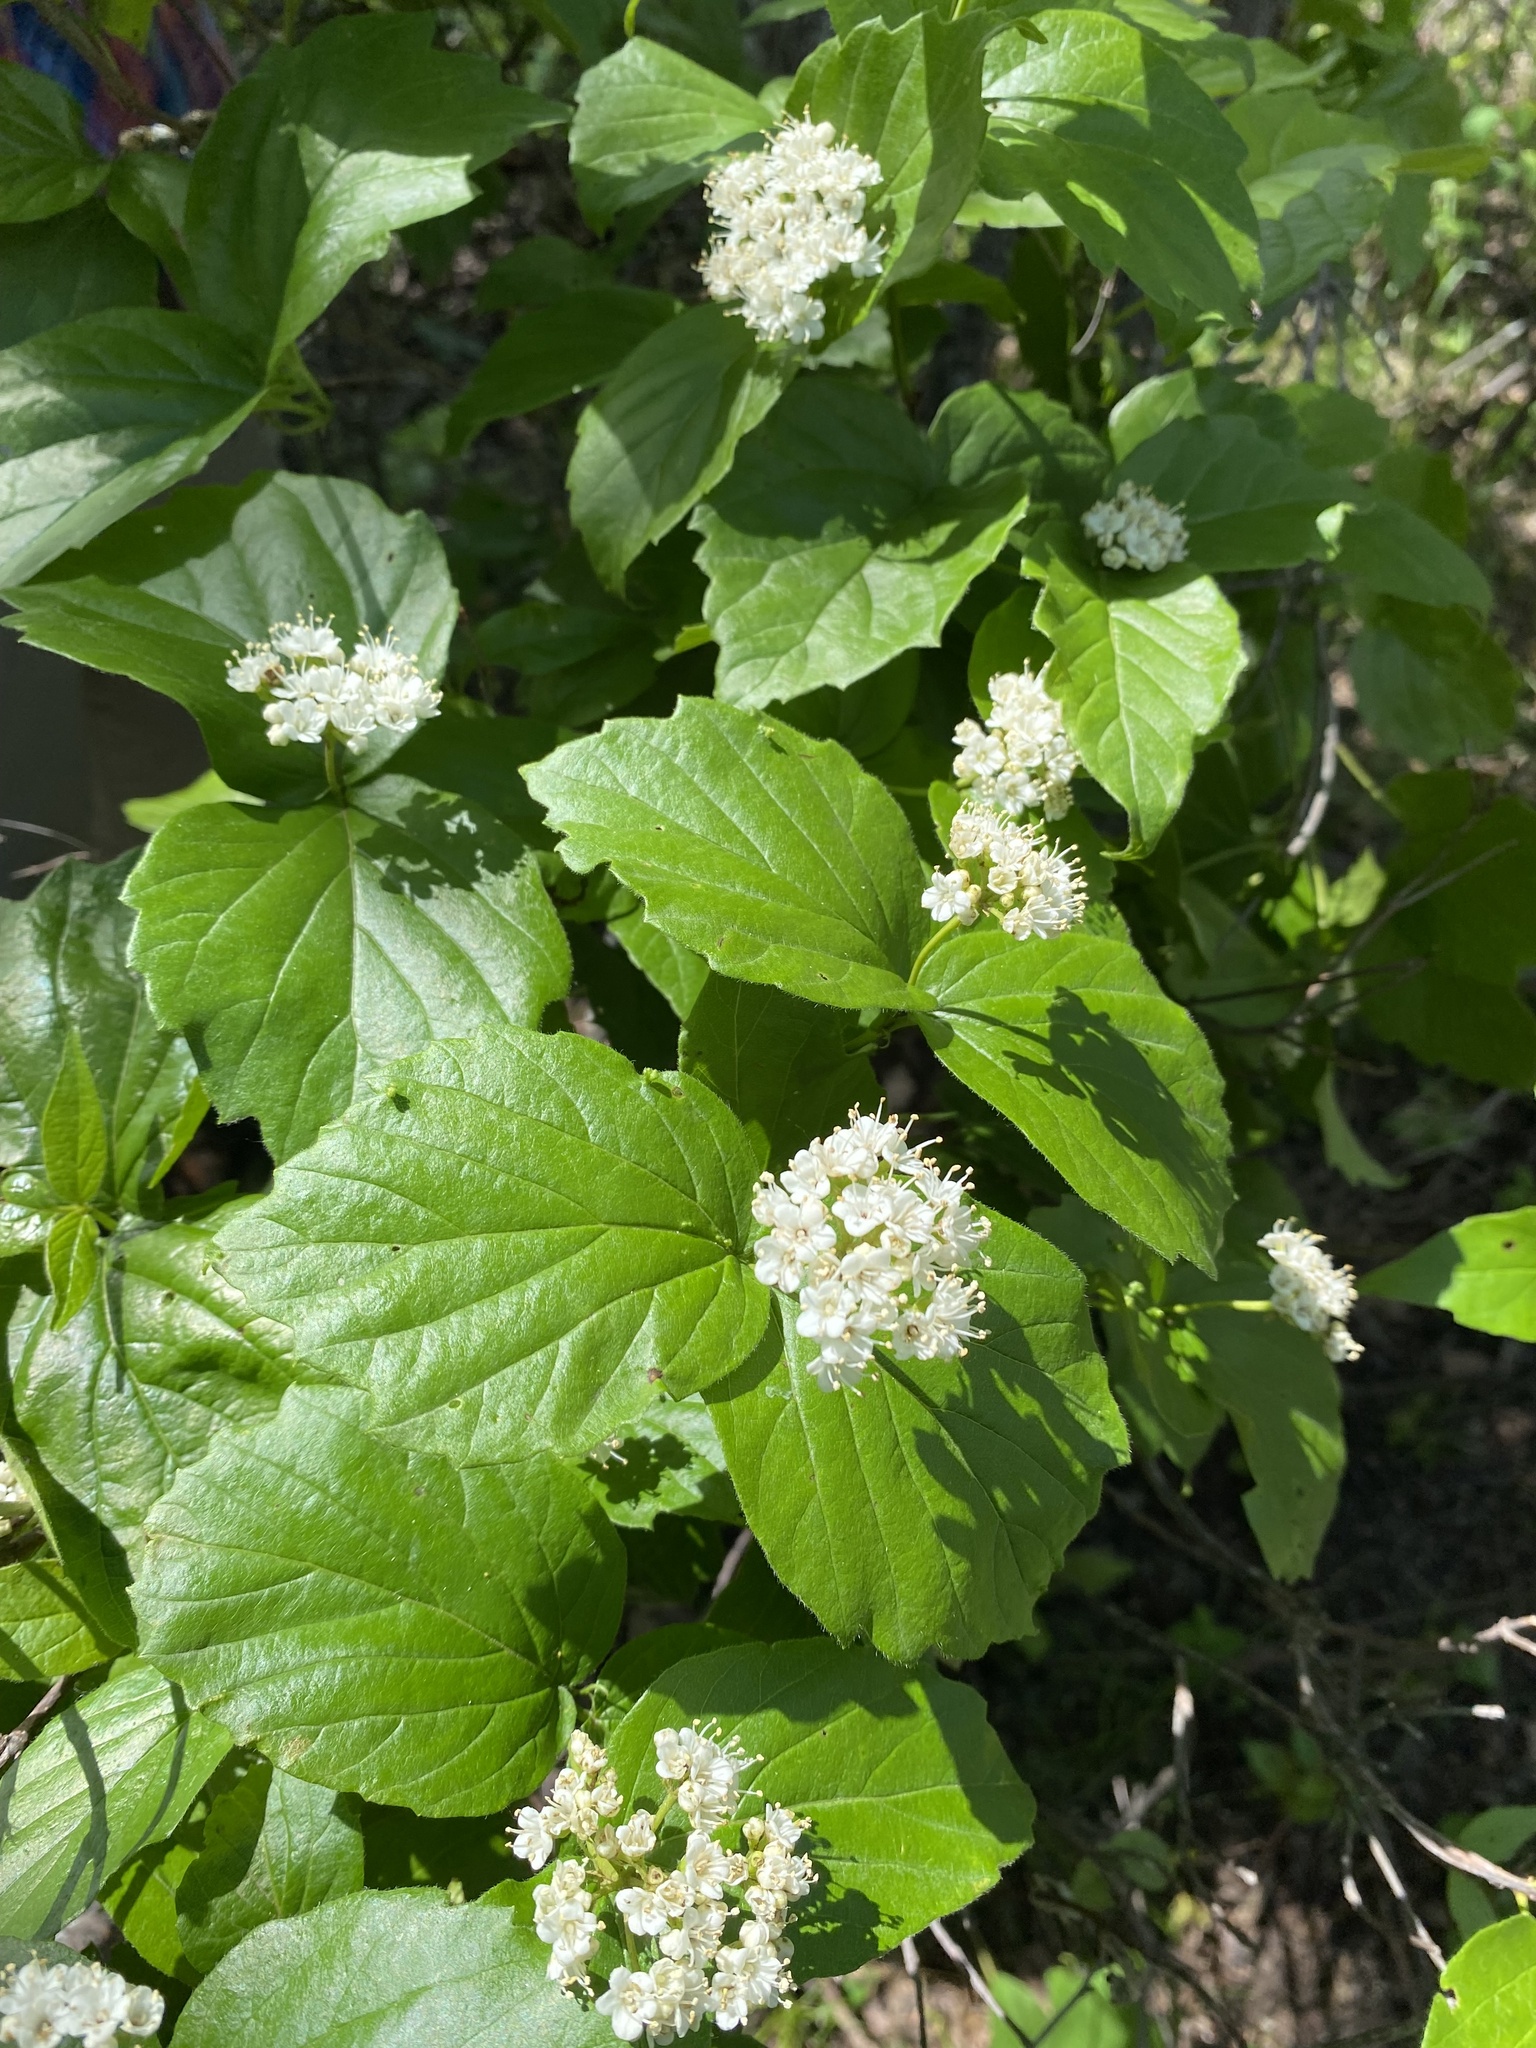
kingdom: Plantae
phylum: Tracheophyta
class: Magnoliopsida
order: Dipsacales
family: Viburnaceae
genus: Viburnum
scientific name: Viburnum rafinesqueanum
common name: Downy arrow-wood
